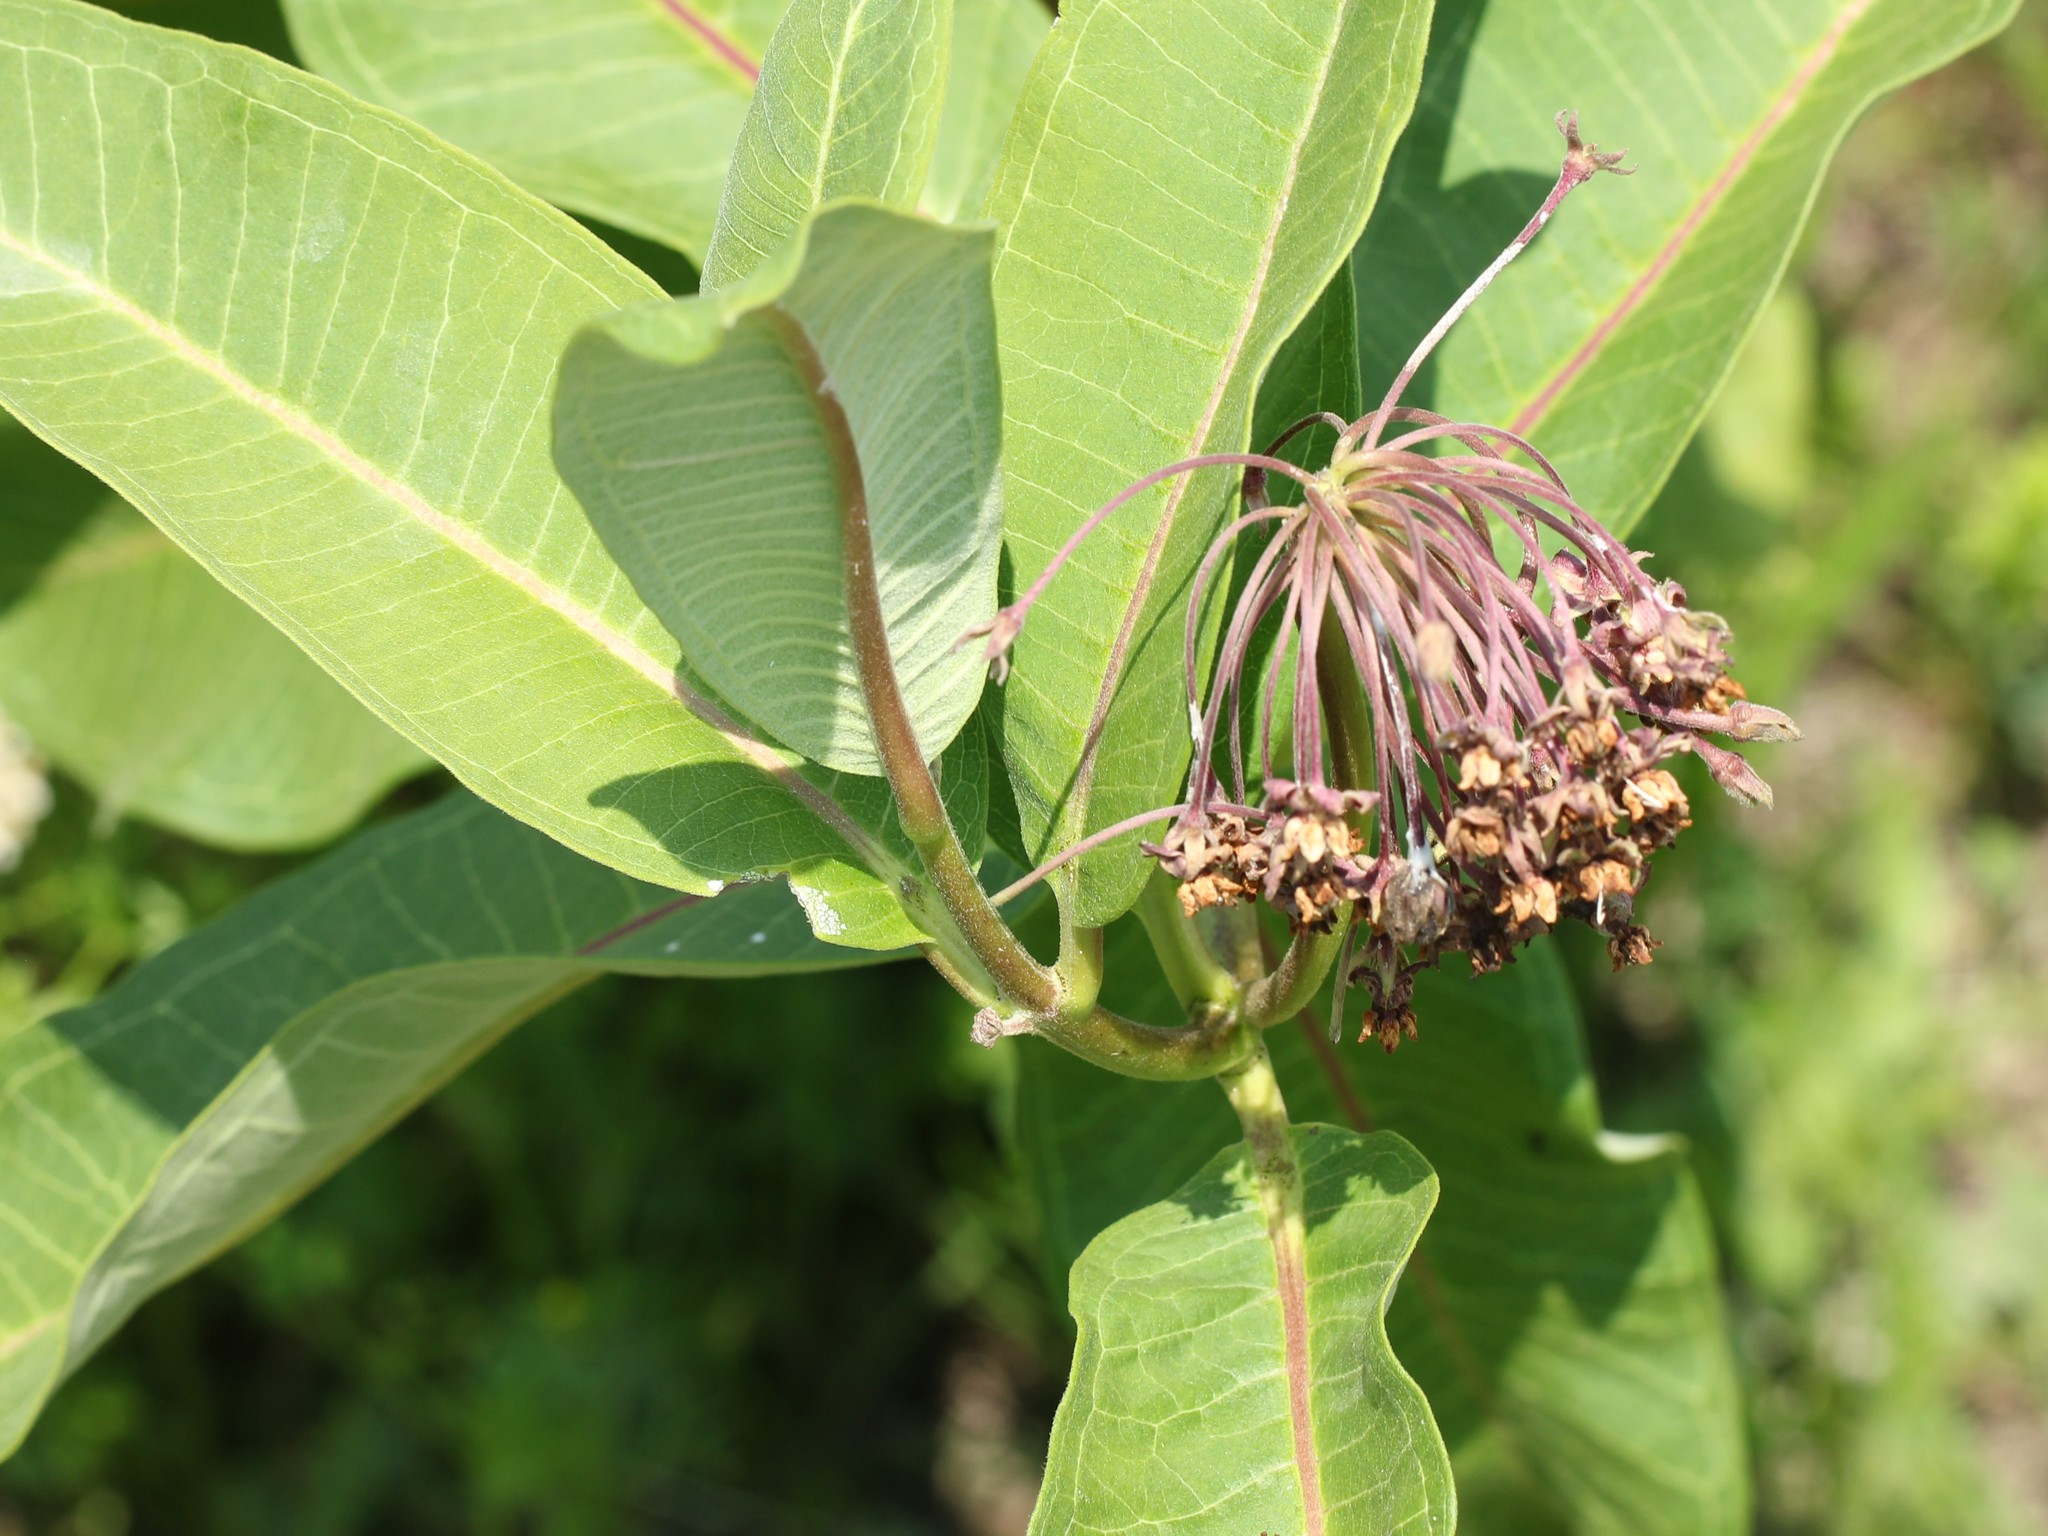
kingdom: Plantae
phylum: Tracheophyta
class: Magnoliopsida
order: Gentianales
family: Apocynaceae
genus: Asclepias
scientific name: Asclepias syriaca
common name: Common milkweed
